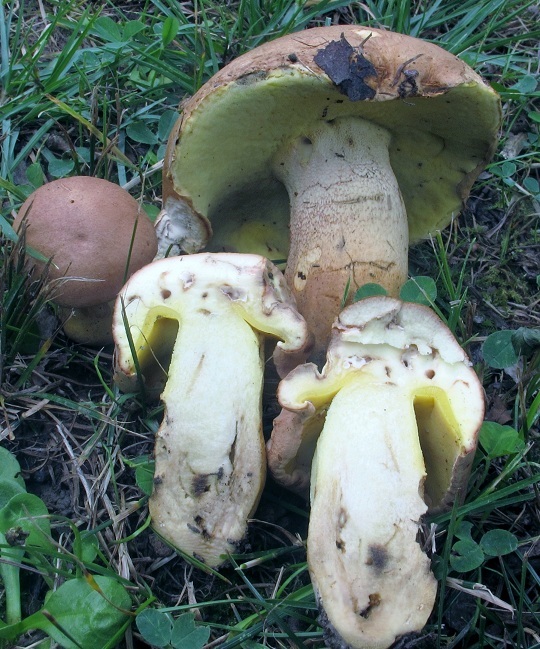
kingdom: Fungi
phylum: Basidiomycota
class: Agaricomycetes
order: Boletales
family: Boletaceae
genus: Butyriboletus
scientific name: Butyriboletus taughannockensis
